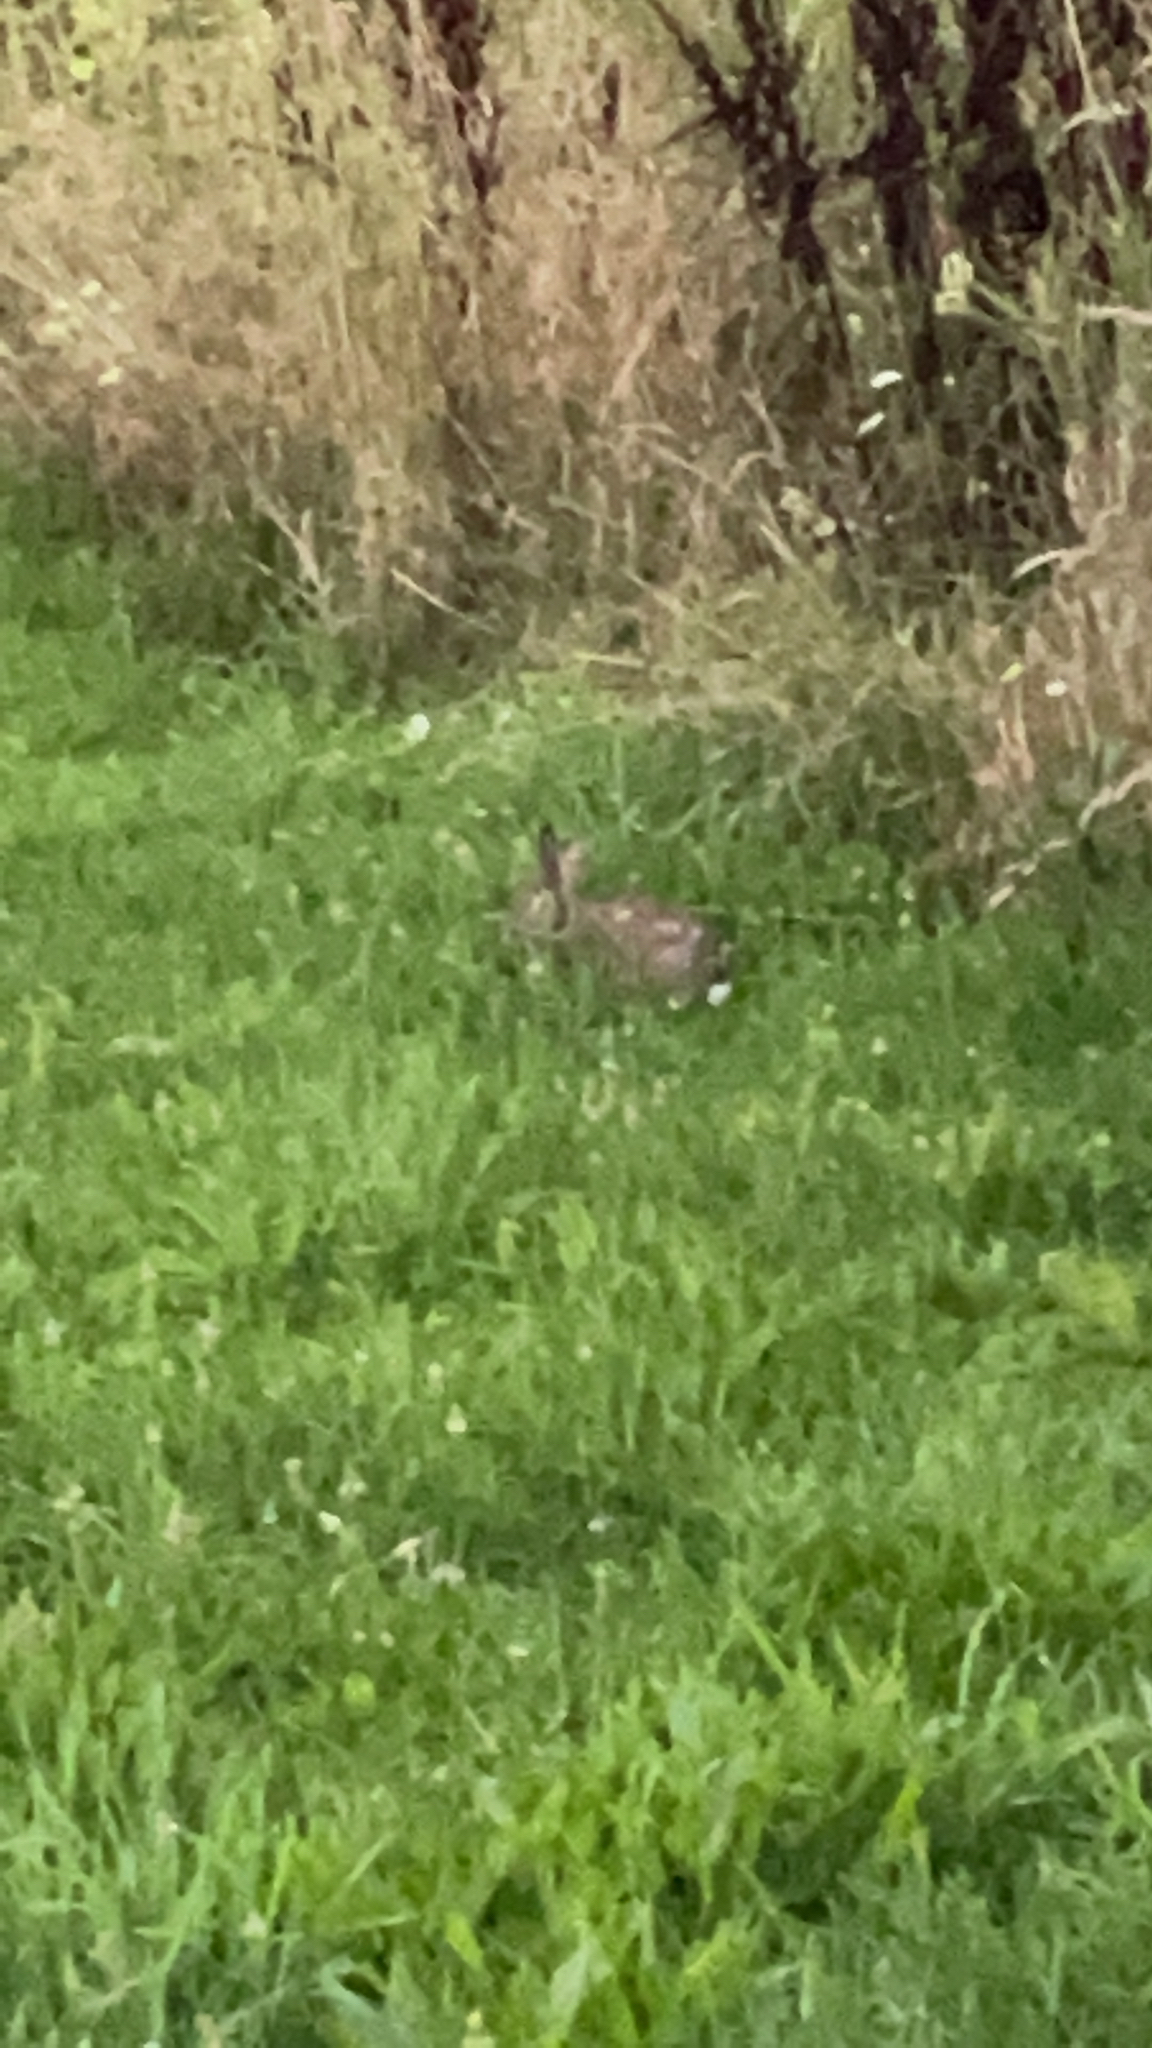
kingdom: Animalia
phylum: Chordata
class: Mammalia
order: Lagomorpha
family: Leporidae
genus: Sylvilagus
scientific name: Sylvilagus floridanus
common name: Eastern cottontail
